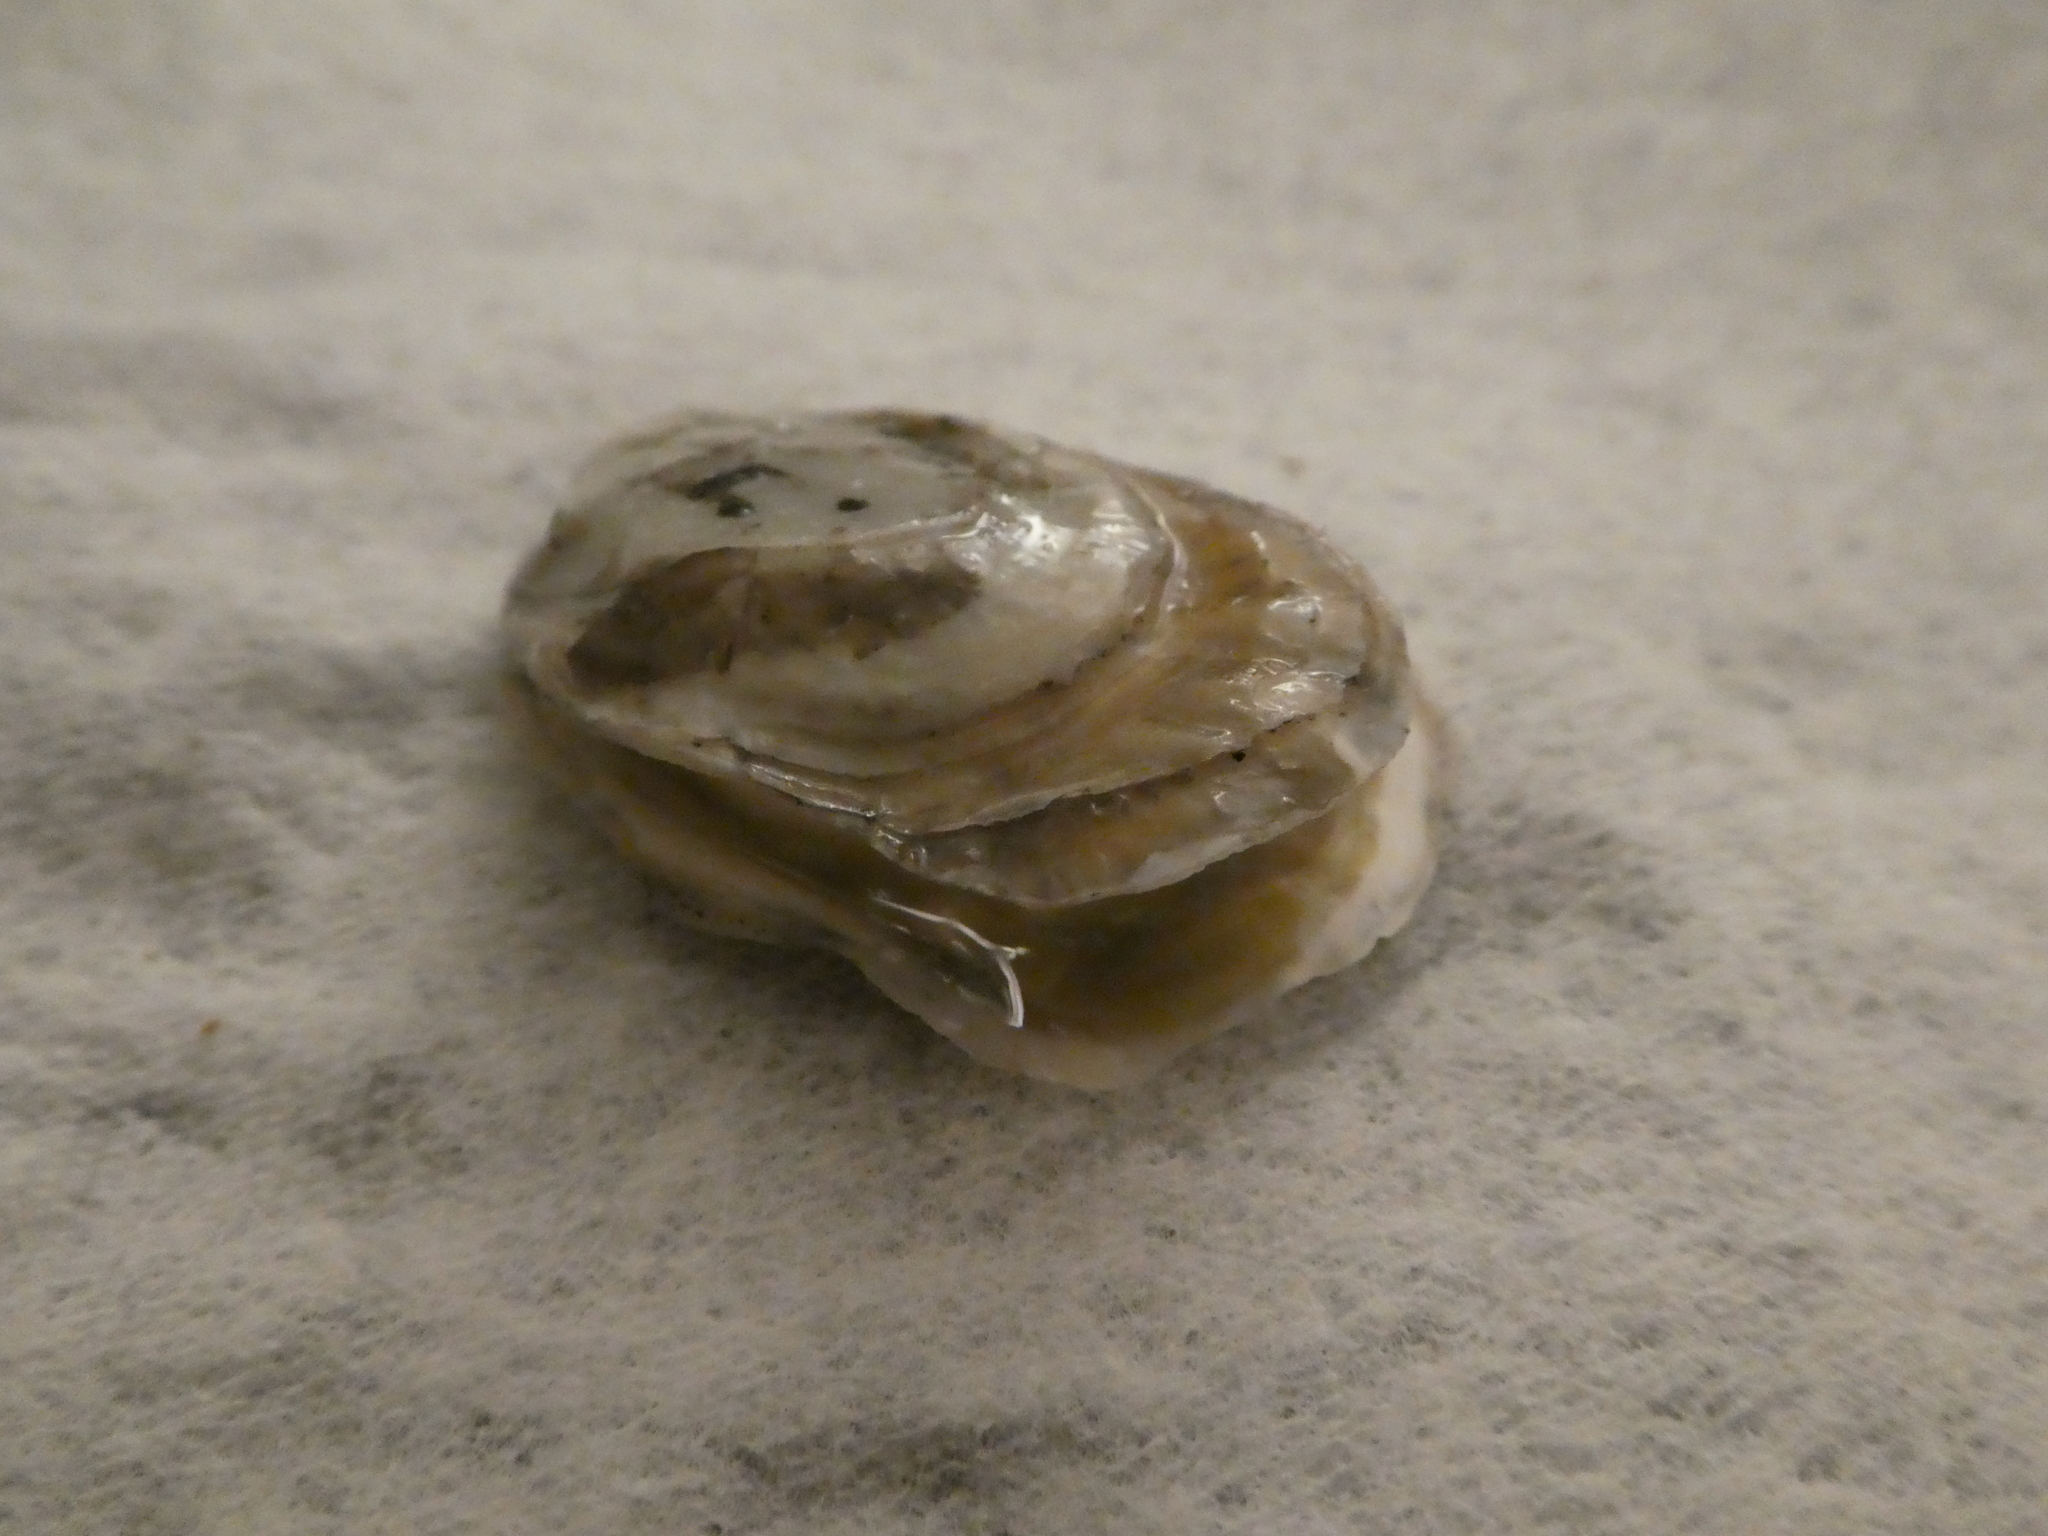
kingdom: Animalia
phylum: Mollusca
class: Bivalvia
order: Ostreida
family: Ostreidae
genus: Ostrea
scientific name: Ostrea lurida
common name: Olympia flat oyster
